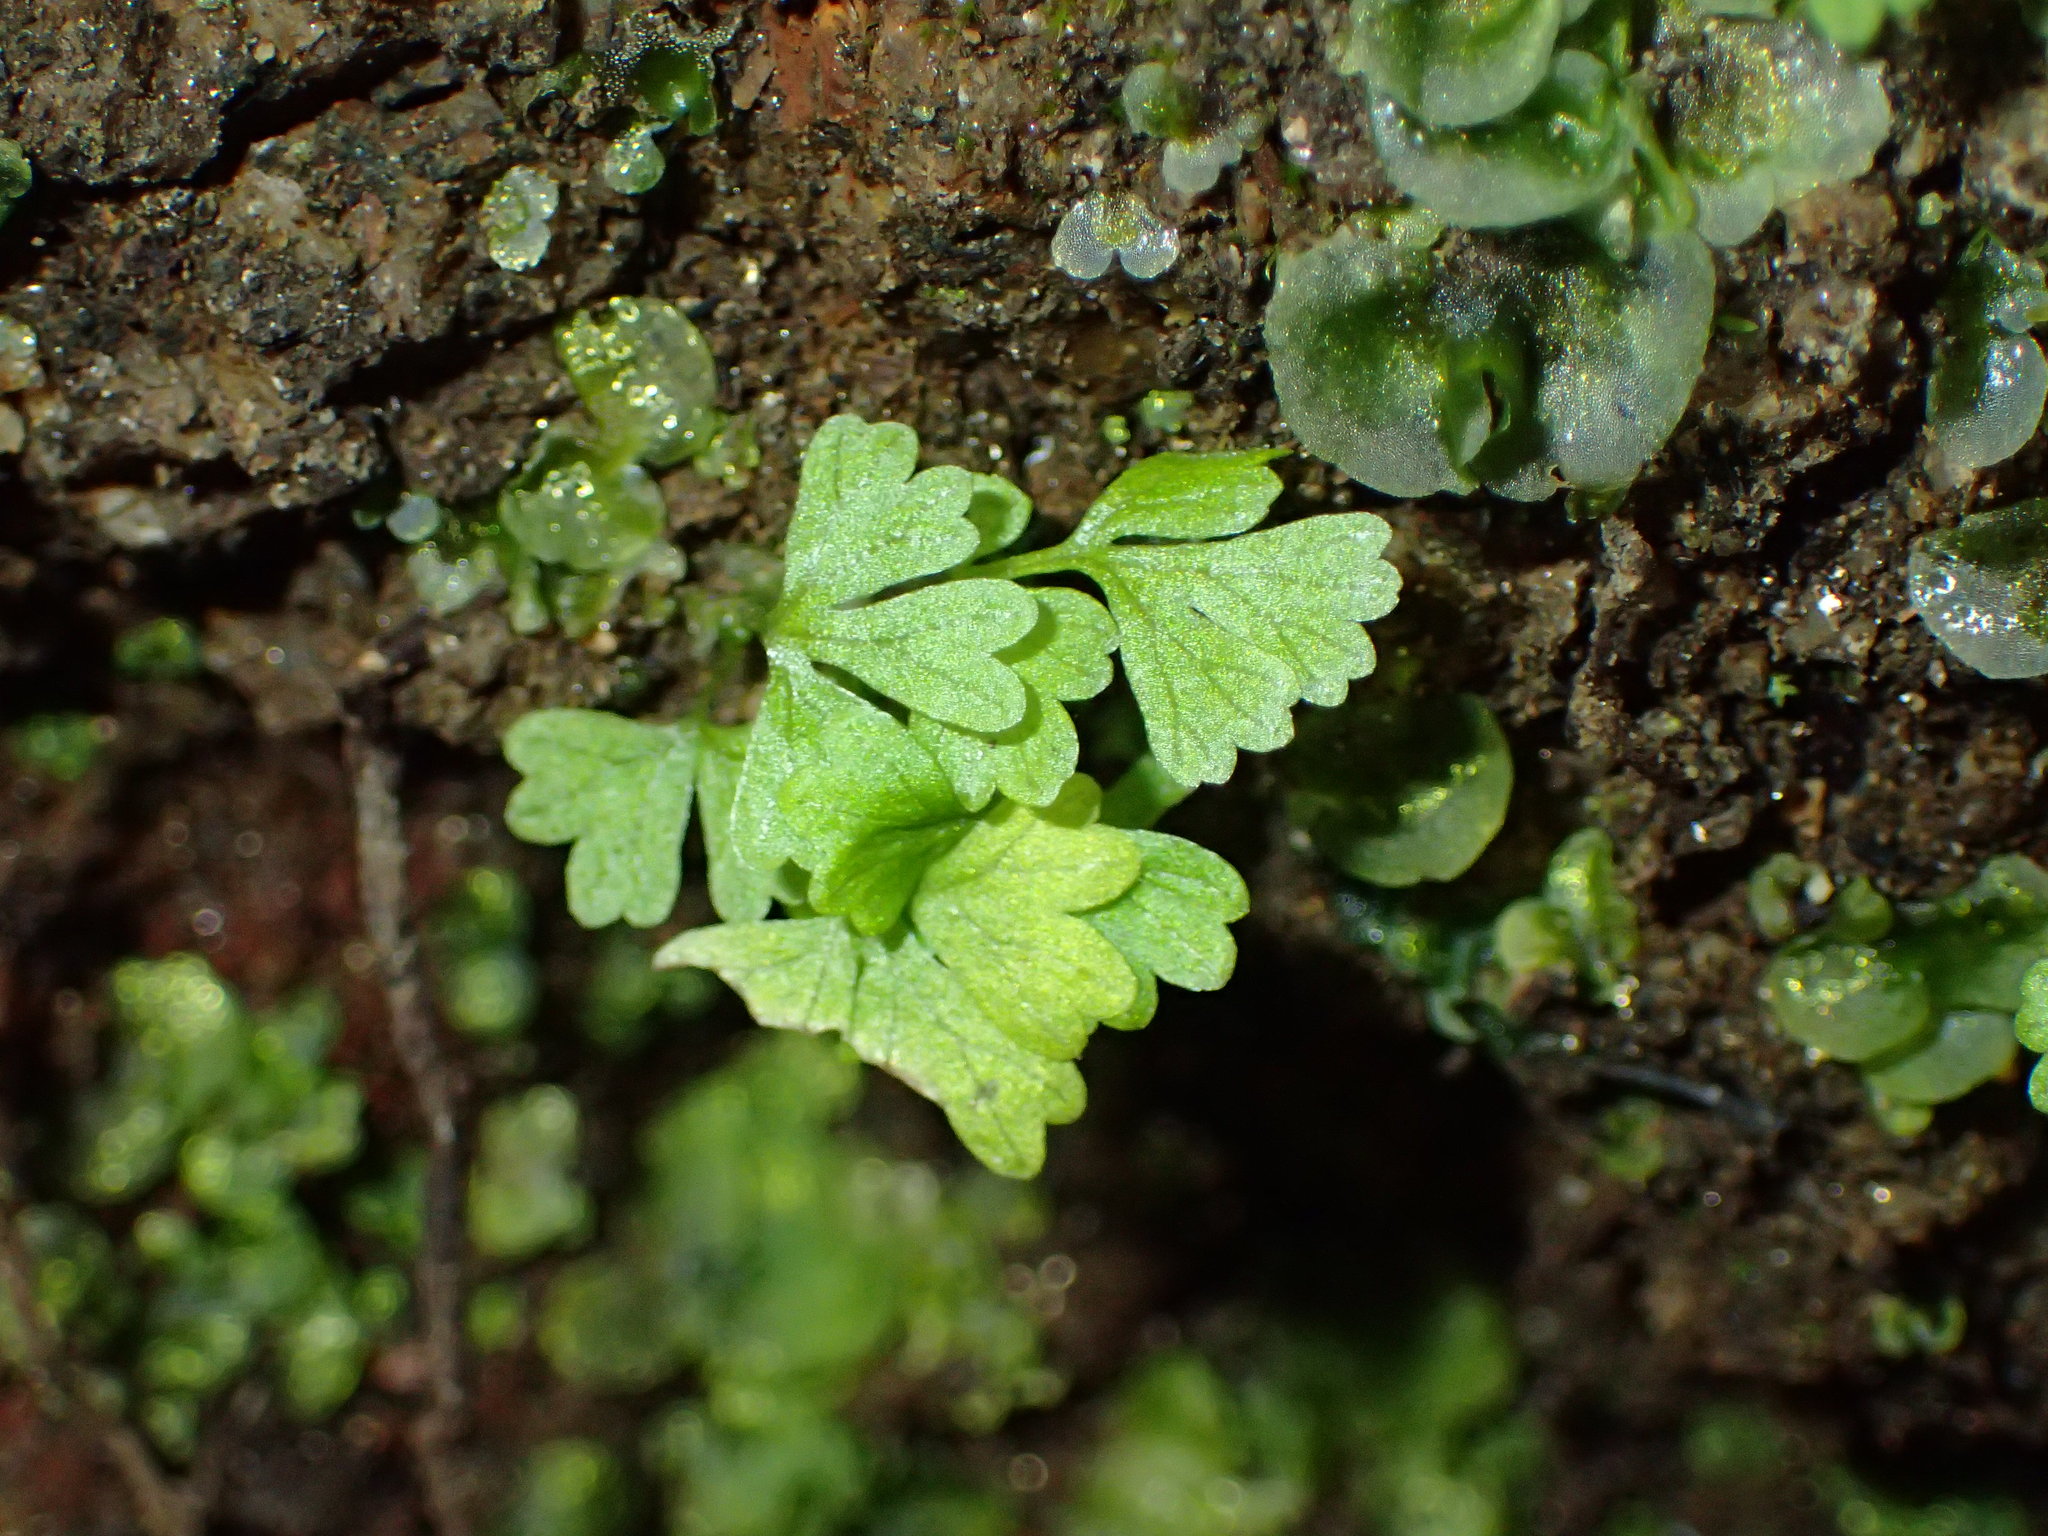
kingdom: Plantae
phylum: Tracheophyta
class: Polypodiopsida
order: Polypodiales
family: Cystopteridaceae
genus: Cystopteris
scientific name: Cystopteris fragilis
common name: Brittle bladder fern
